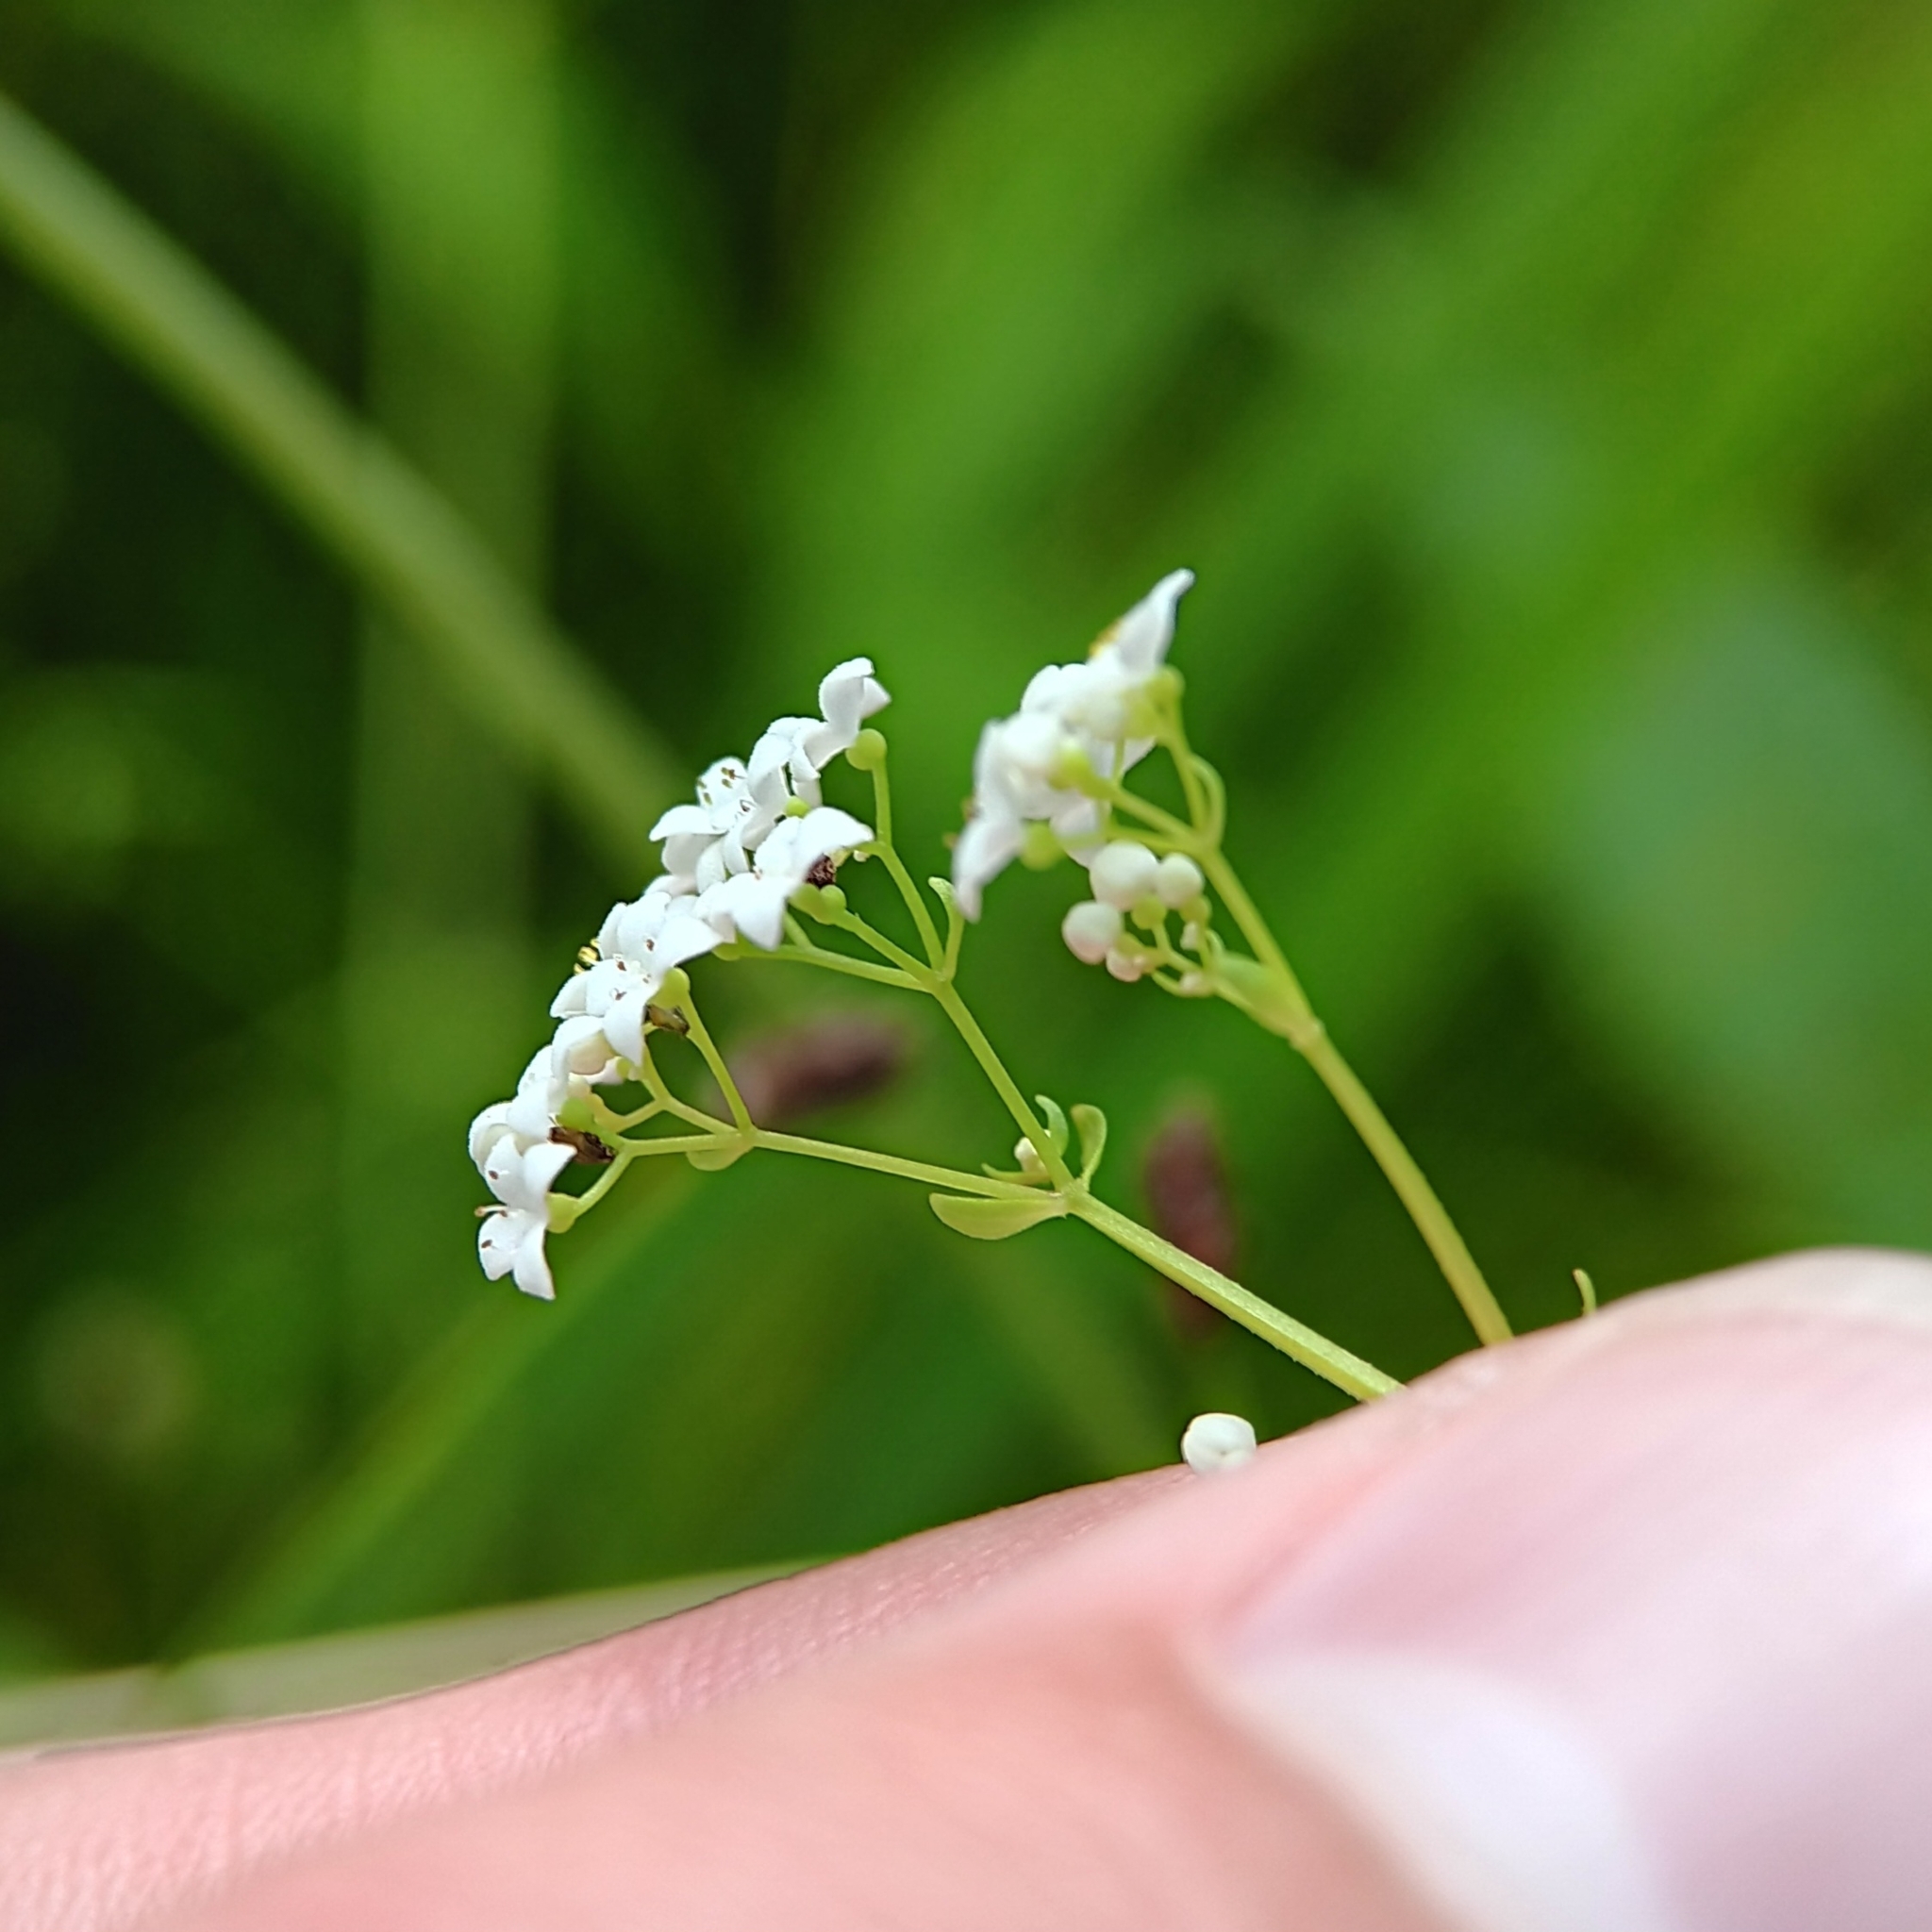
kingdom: Plantae
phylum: Tracheophyta
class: Magnoliopsida
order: Gentianales
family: Rubiaceae
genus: Galium
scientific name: Galium palustre
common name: Common marsh-bedstraw
